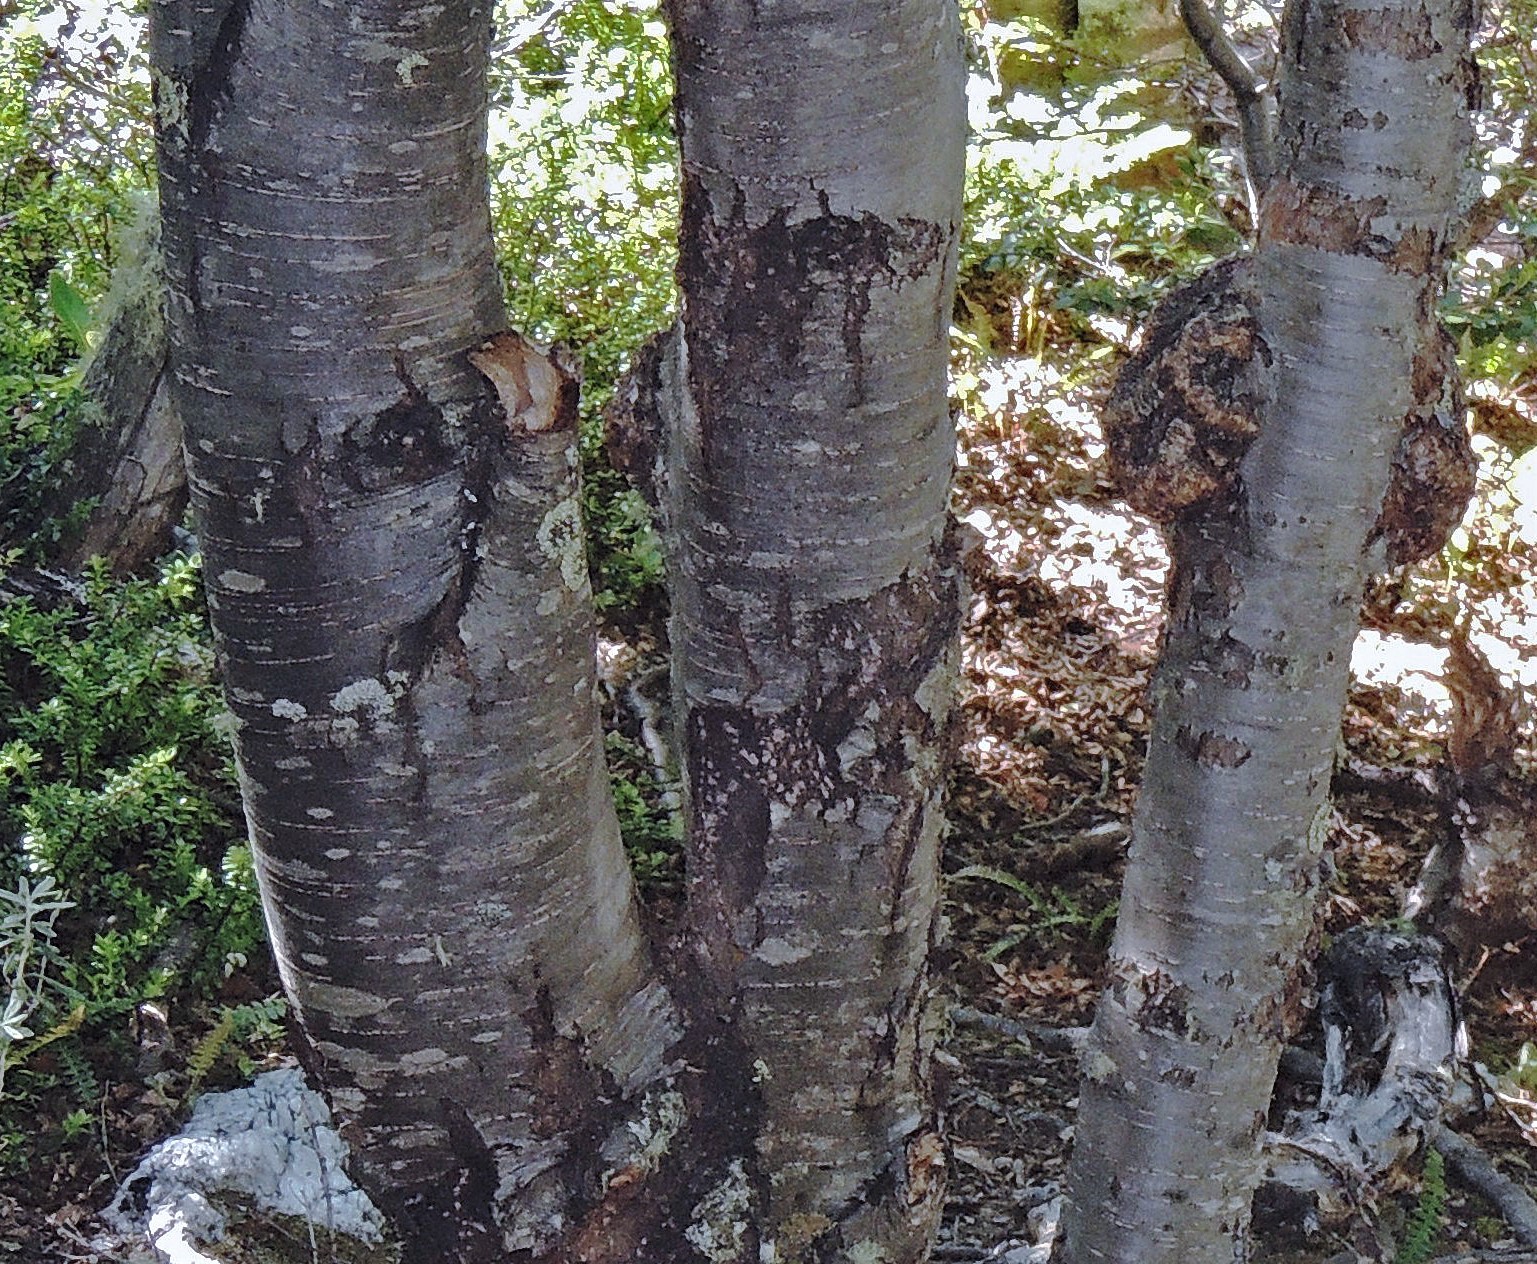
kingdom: Plantae
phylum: Tracheophyta
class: Magnoliopsida
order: Fagales
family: Nothofagaceae
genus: Nothofagus
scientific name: Nothofagus betuloides
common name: Magellan's beech
